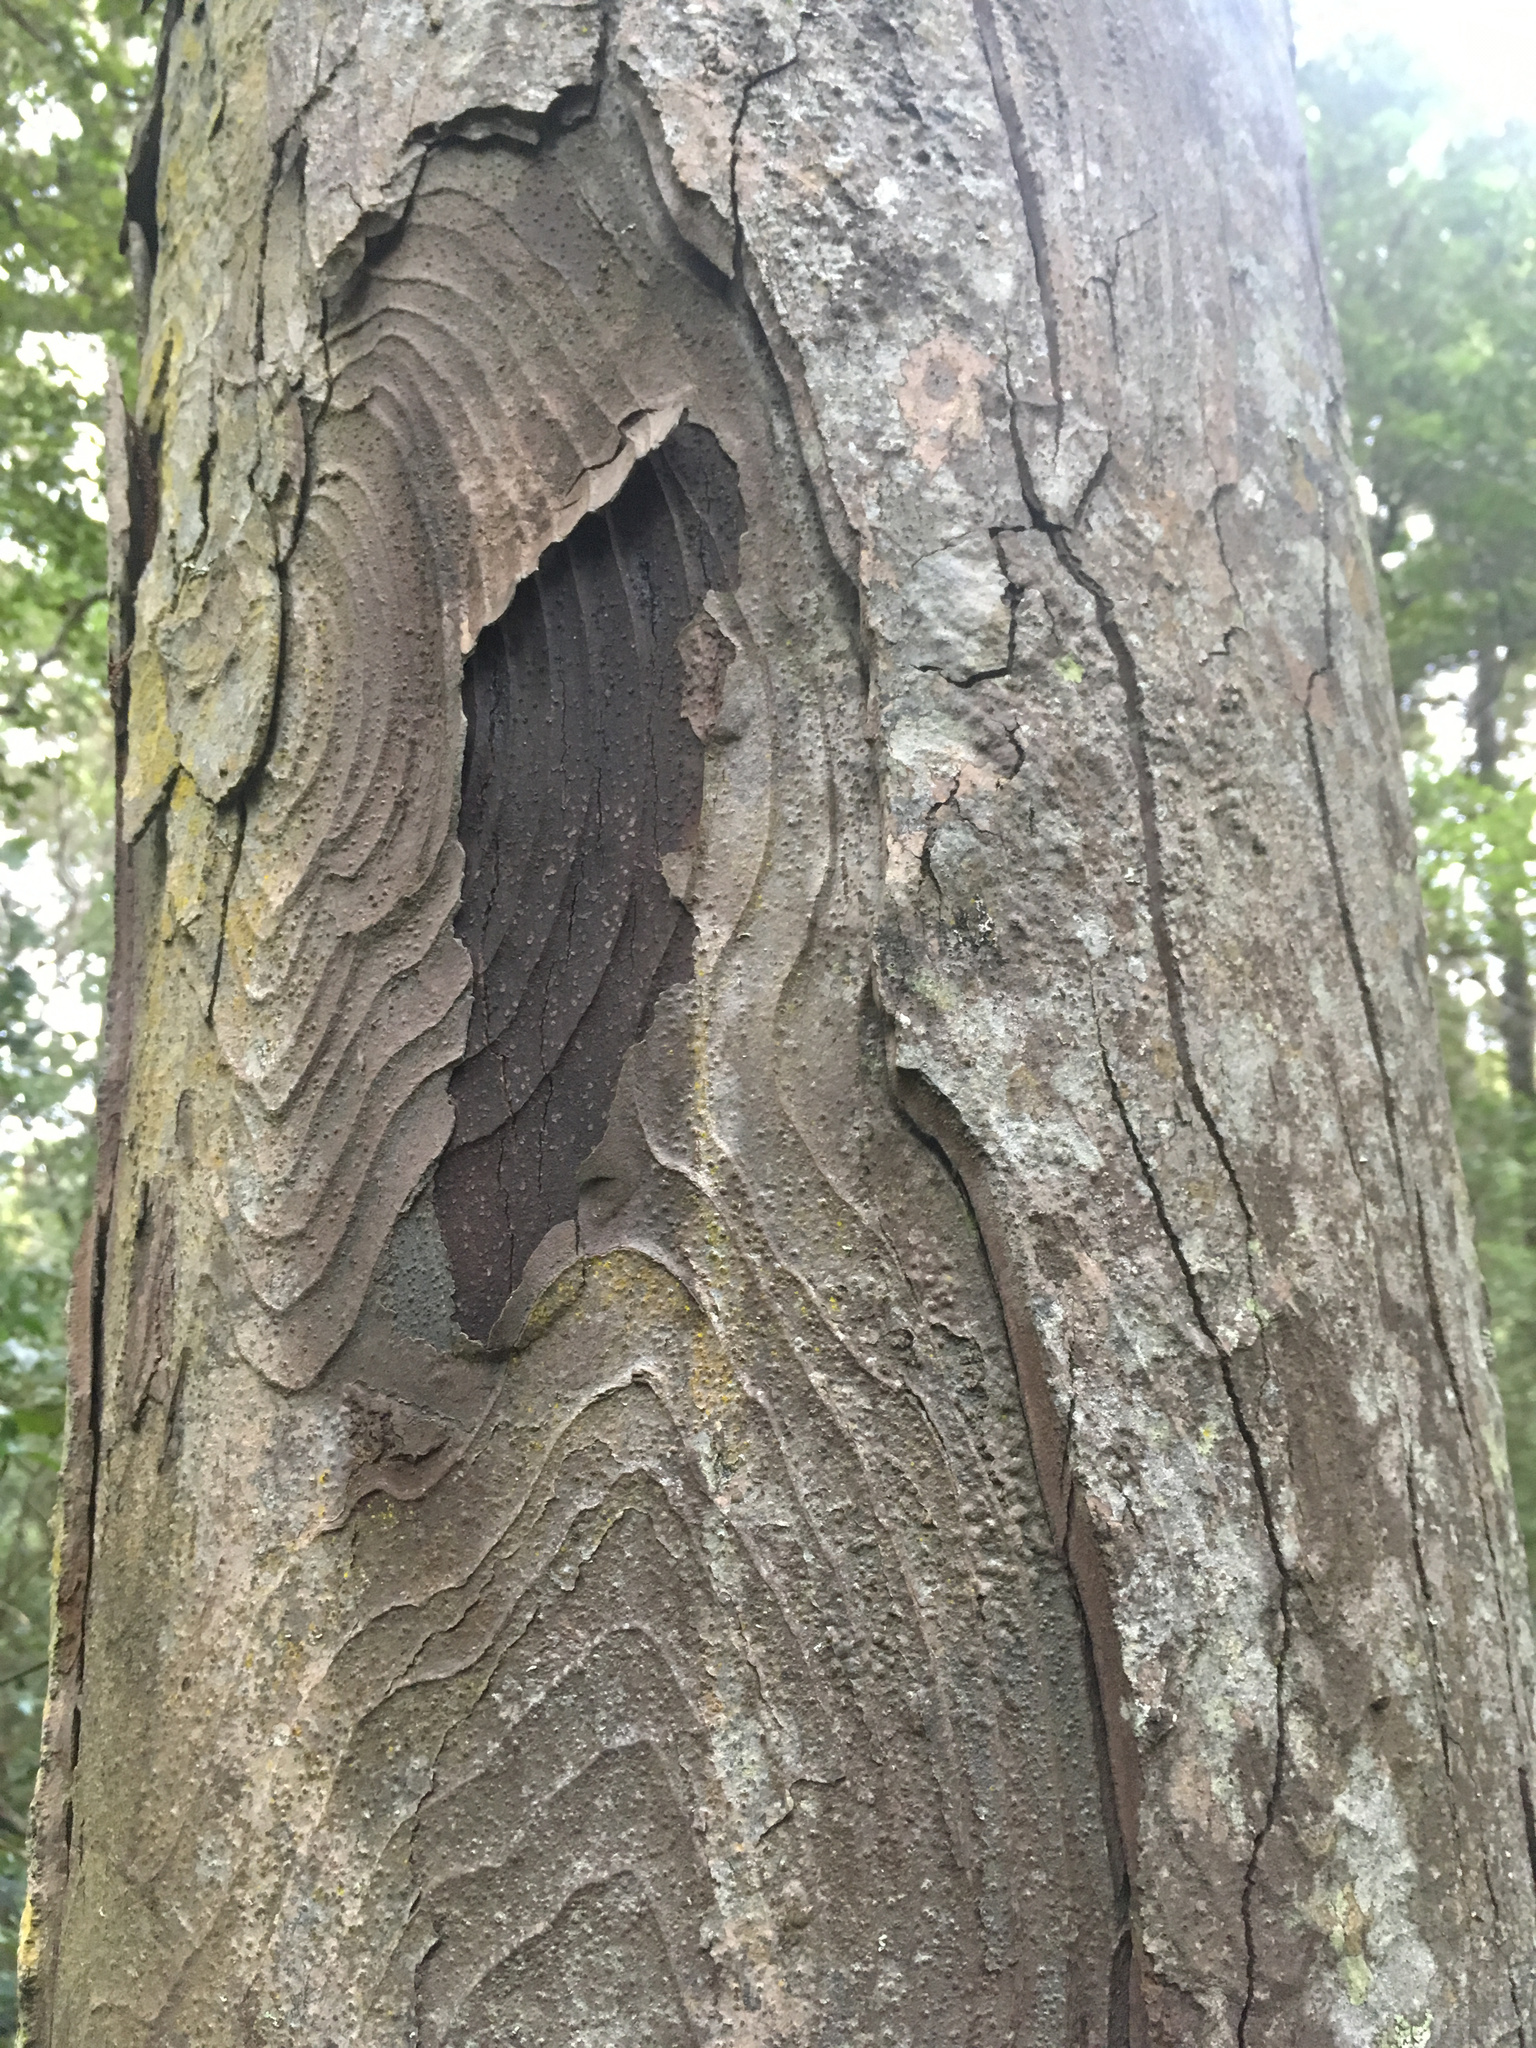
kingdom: Plantae
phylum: Tracheophyta
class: Pinopsida
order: Pinales
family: Podocarpaceae
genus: Dacrydium
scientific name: Dacrydium cupressinum
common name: Red pine
